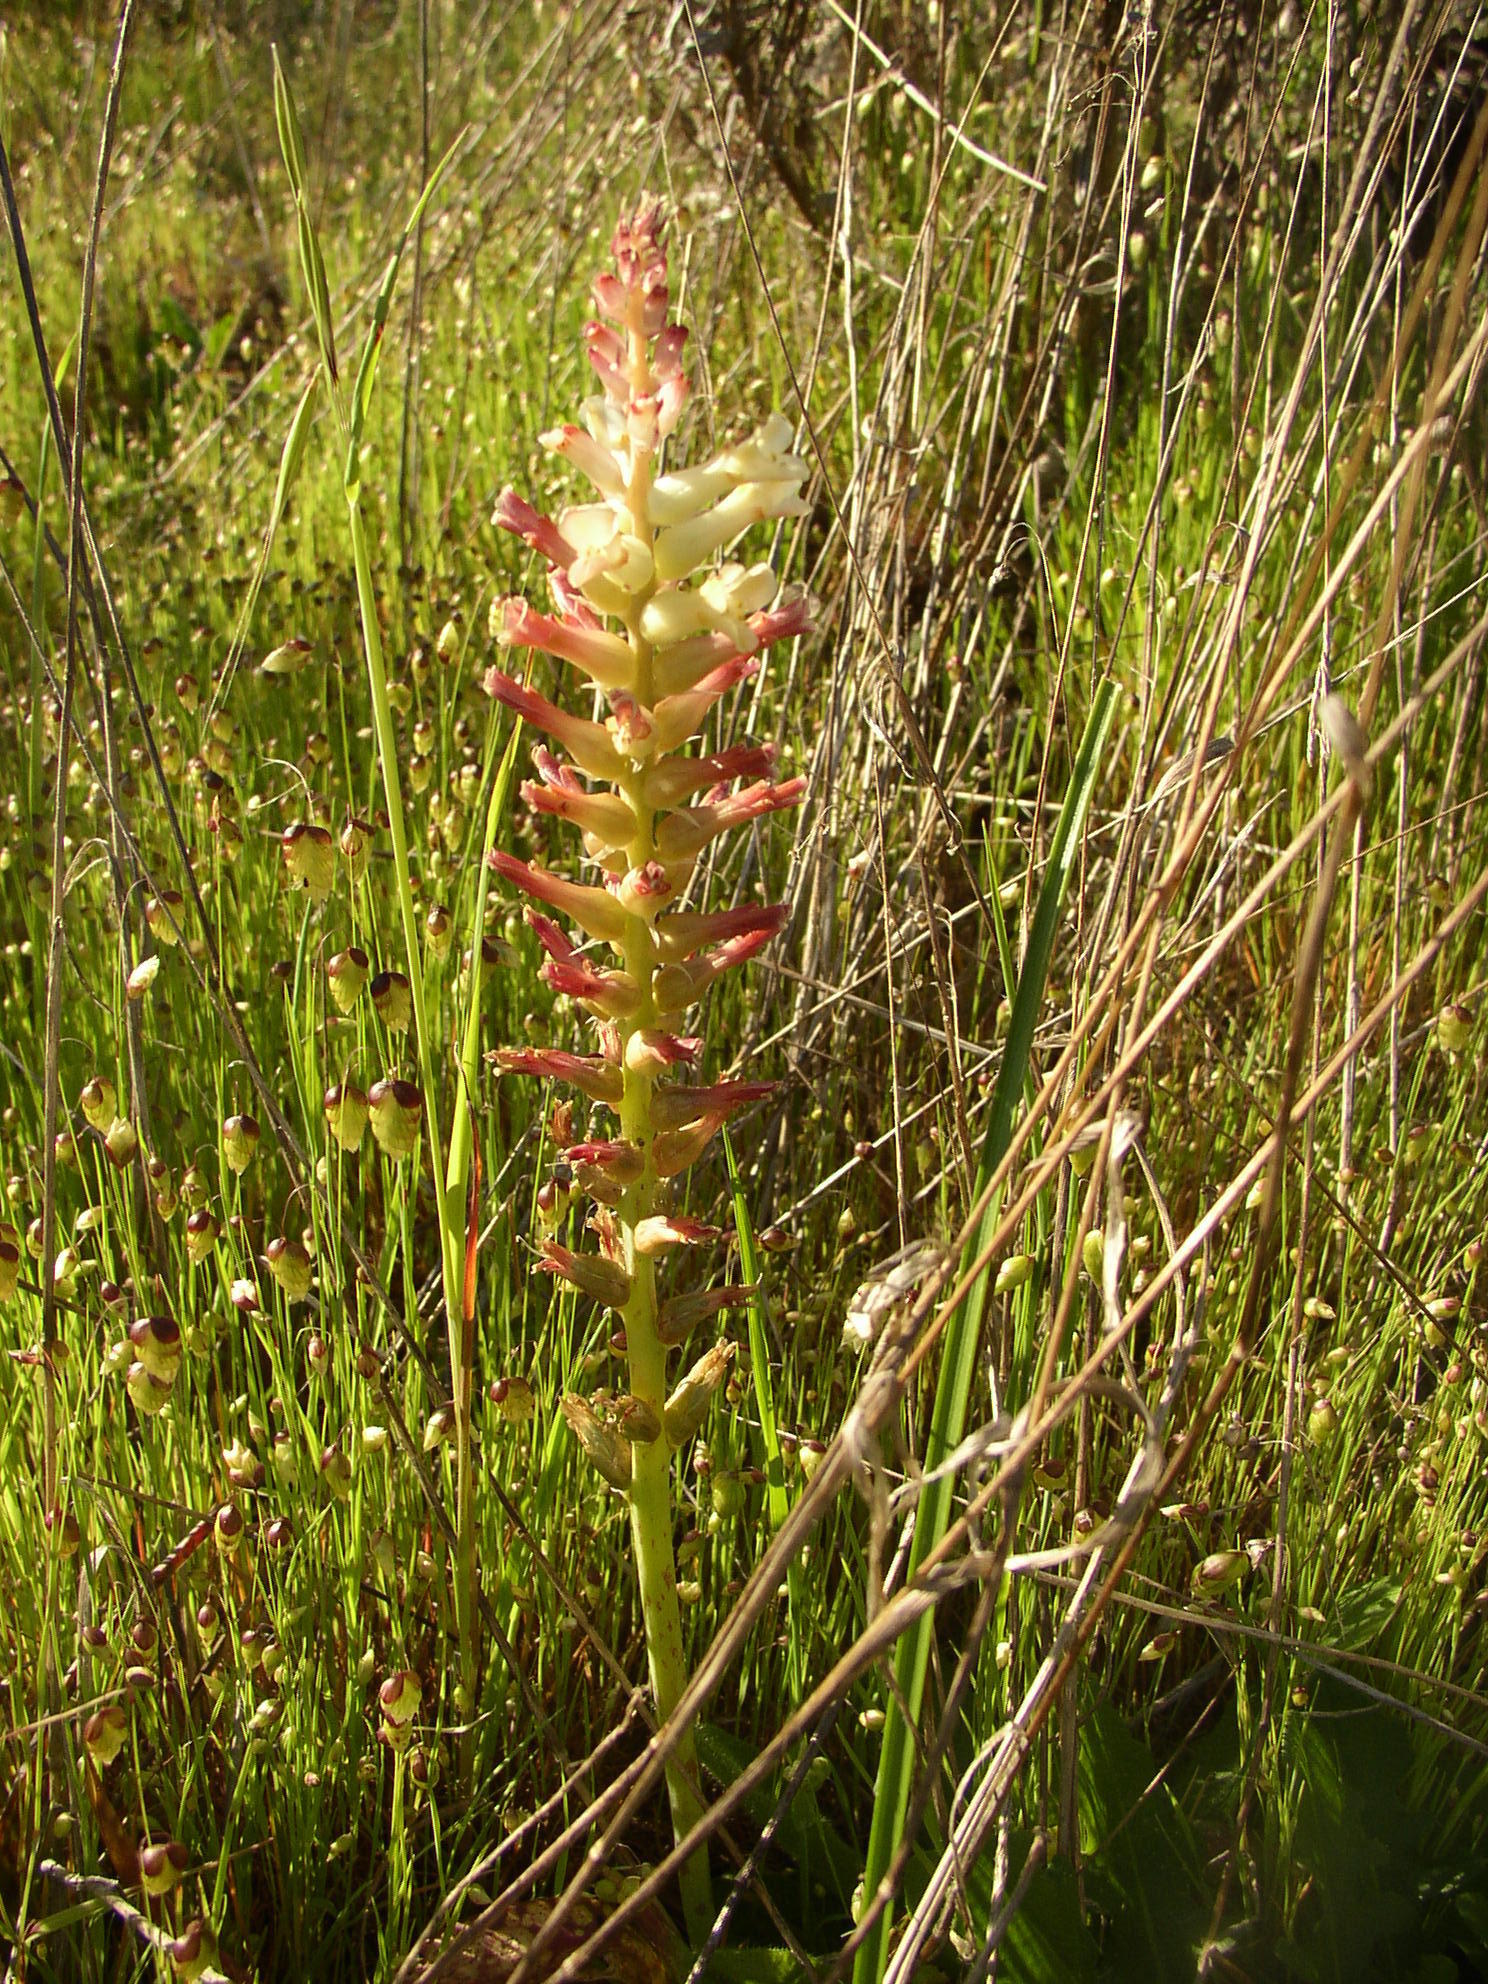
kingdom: Plantae
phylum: Tracheophyta
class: Liliopsida
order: Asparagales
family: Asparagaceae
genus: Lachenalia
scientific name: Lachenalia orchioides
